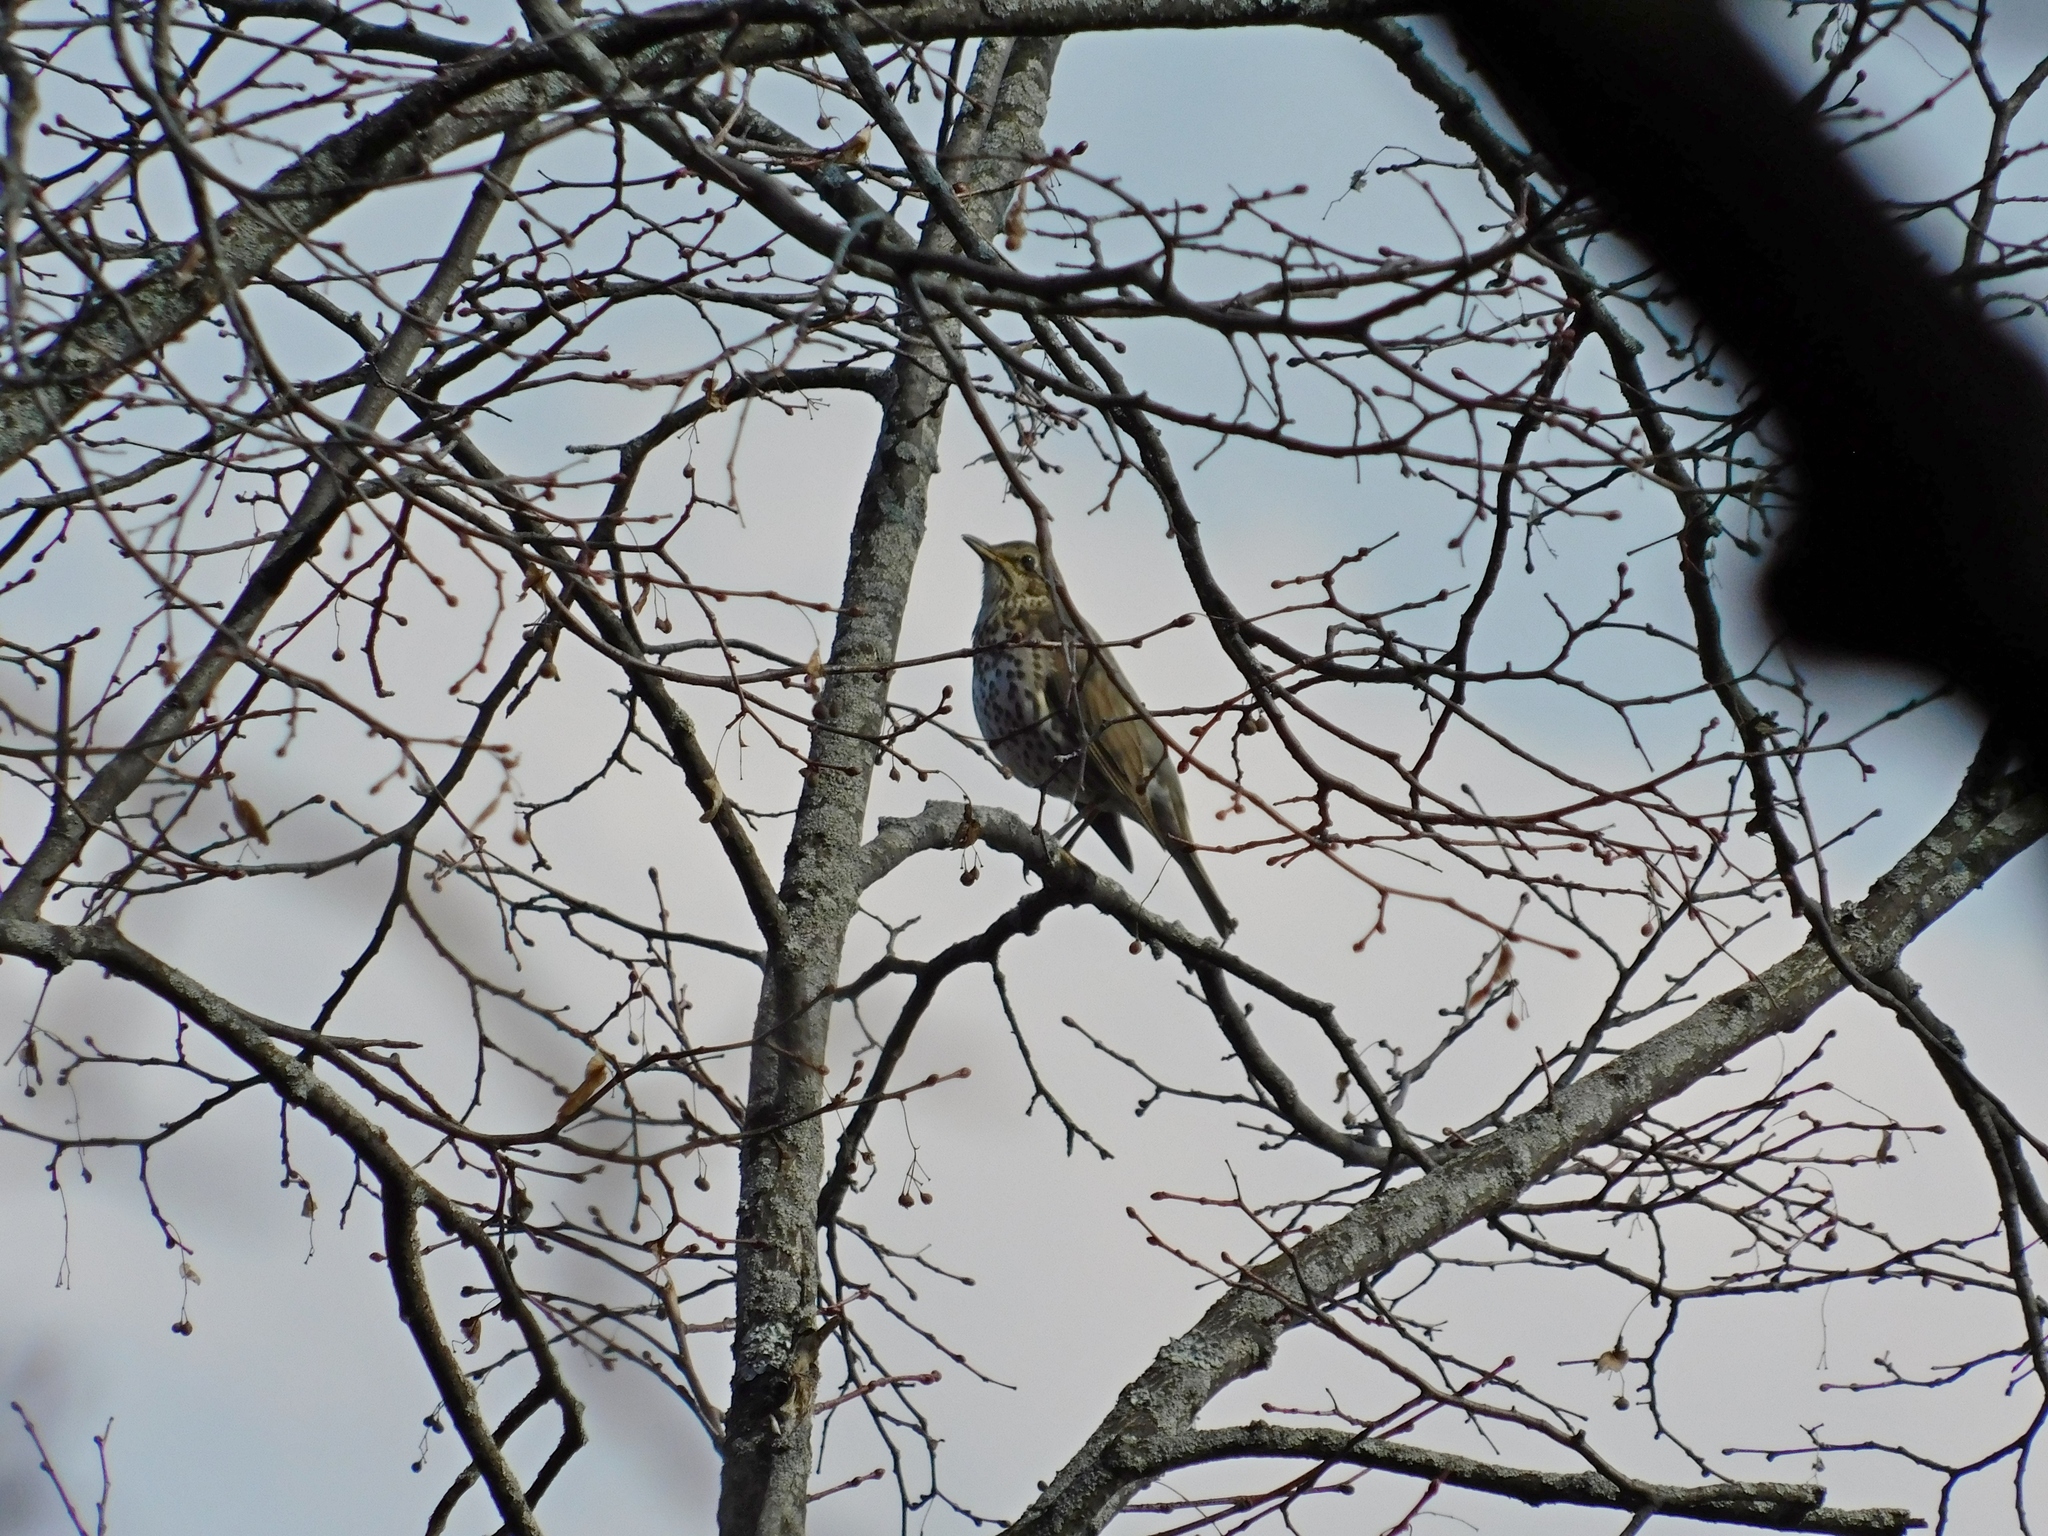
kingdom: Animalia
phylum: Chordata
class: Aves
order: Passeriformes
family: Turdidae
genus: Turdus
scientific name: Turdus philomelos
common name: Song thrush
